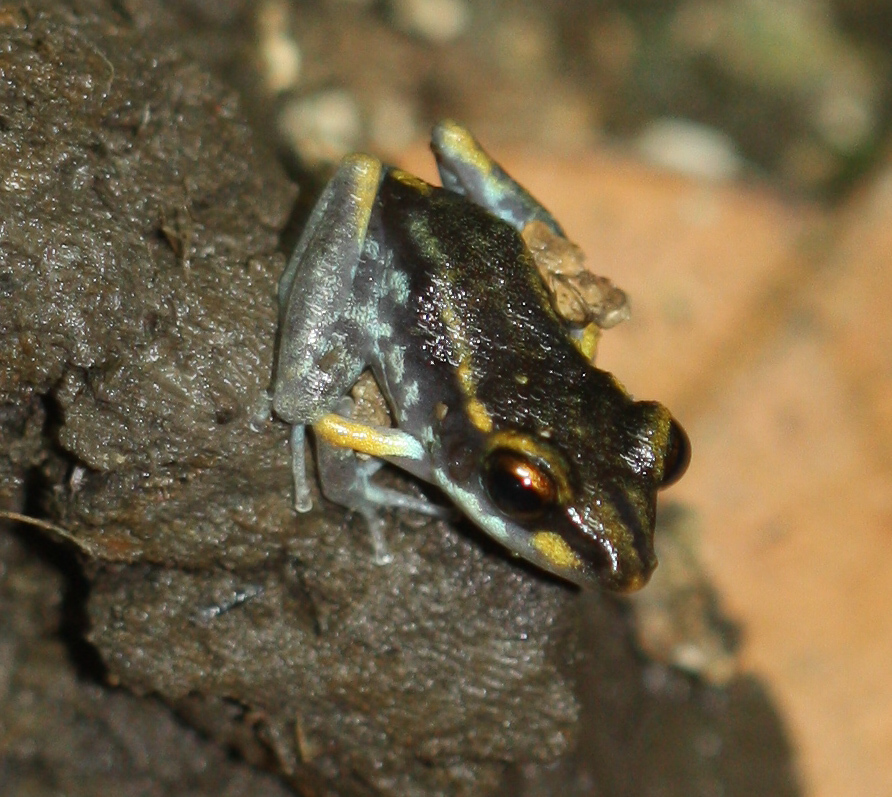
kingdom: Animalia
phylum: Chordata
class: Amphibia
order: Anura
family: Craugastoridae
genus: Pristimantis
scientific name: Pristimantis gaigei
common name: Fort randolph robber frog
